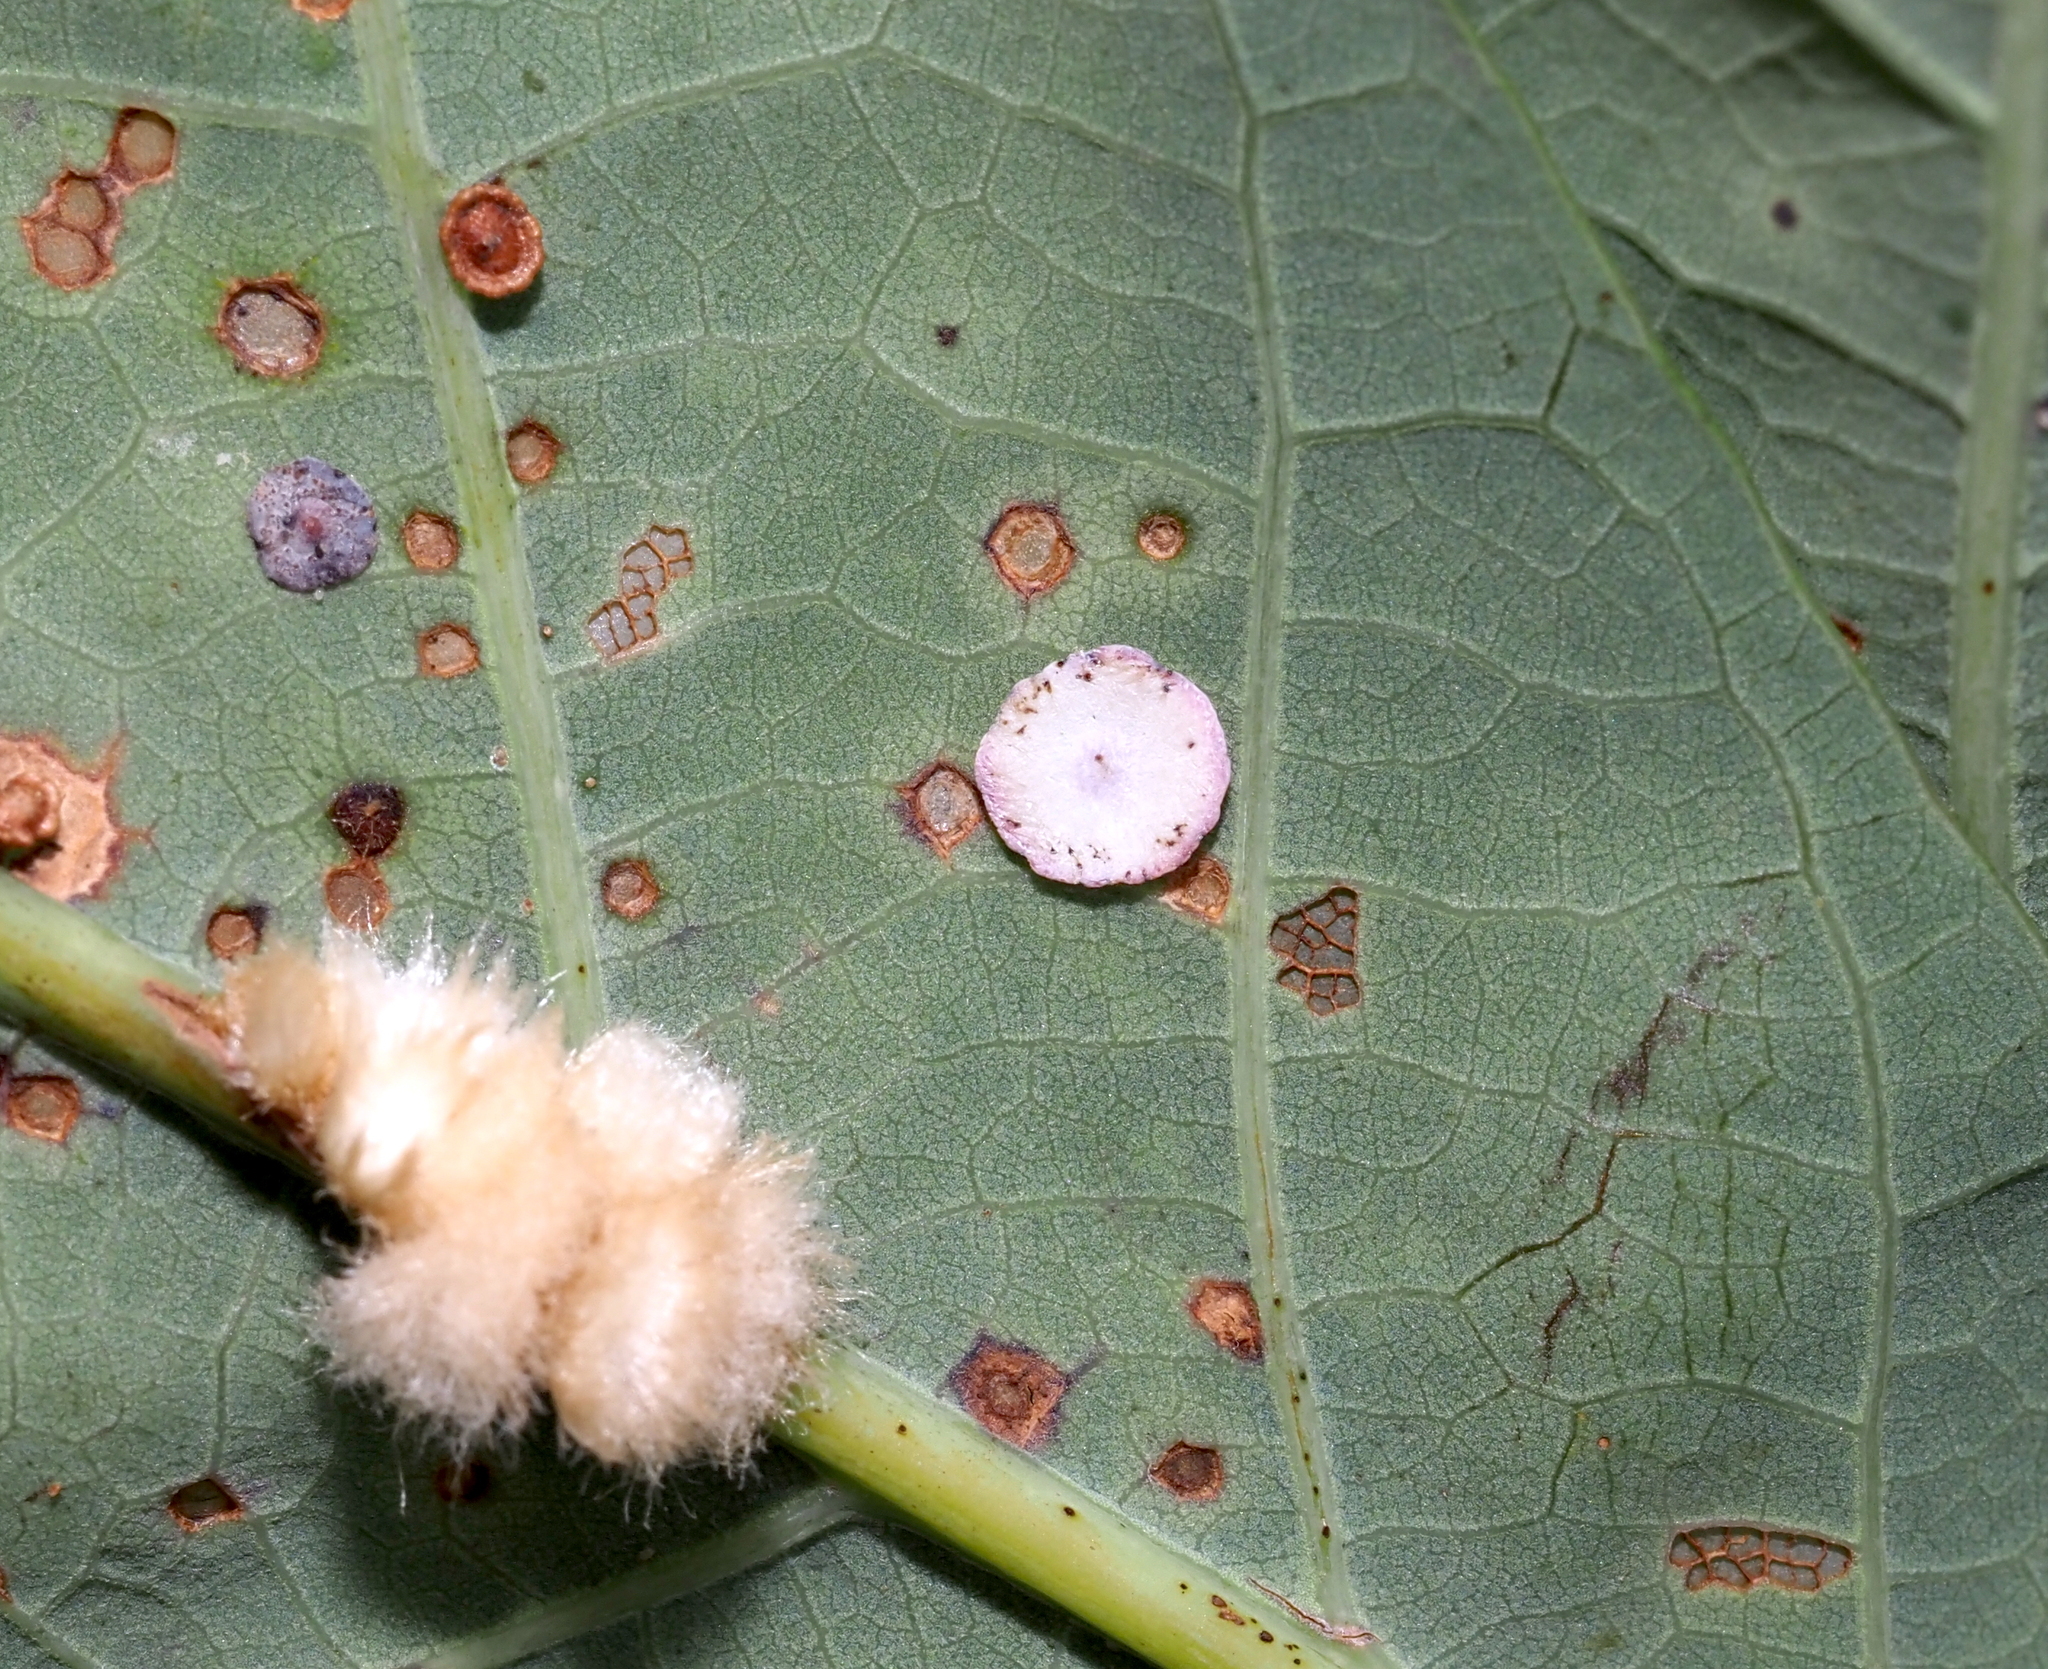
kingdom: Animalia
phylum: Arthropoda
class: Insecta
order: Hymenoptera
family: Cynipidae
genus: Phylloteras
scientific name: Phylloteras poculum
